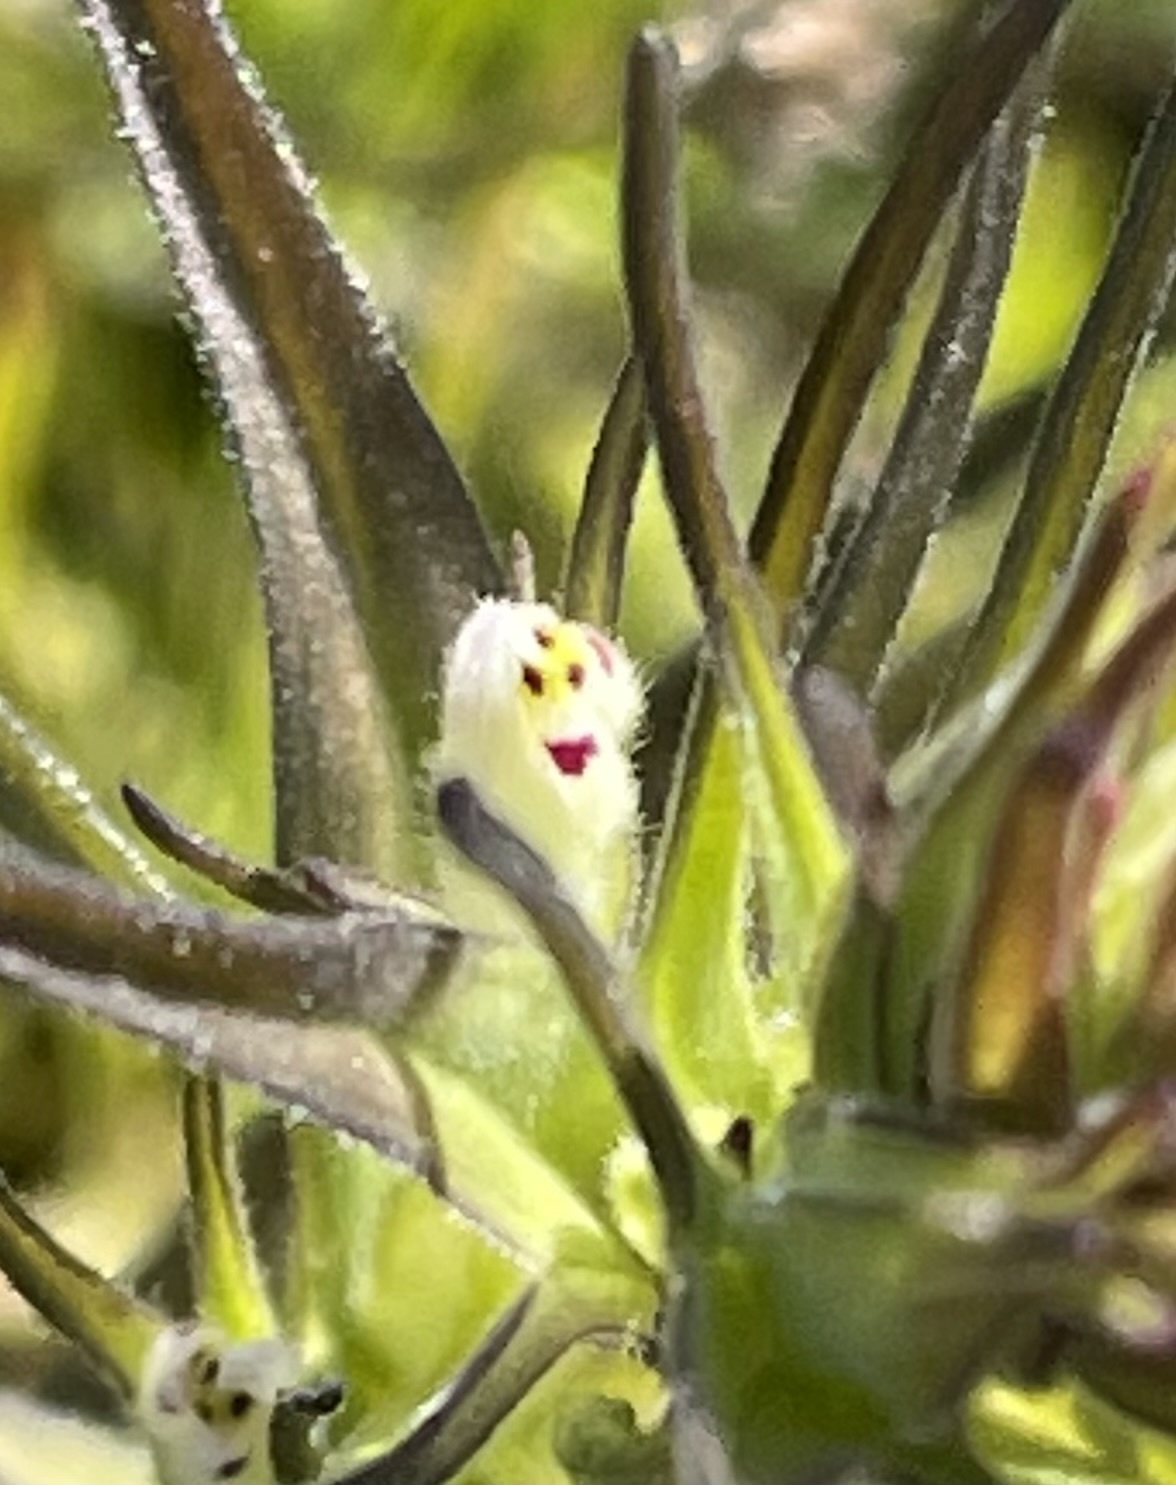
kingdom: Plantae
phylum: Tracheophyta
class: Magnoliopsida
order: Lamiales
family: Orobanchaceae
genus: Castilleja
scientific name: Castilleja attenuata
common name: Valley tassels
